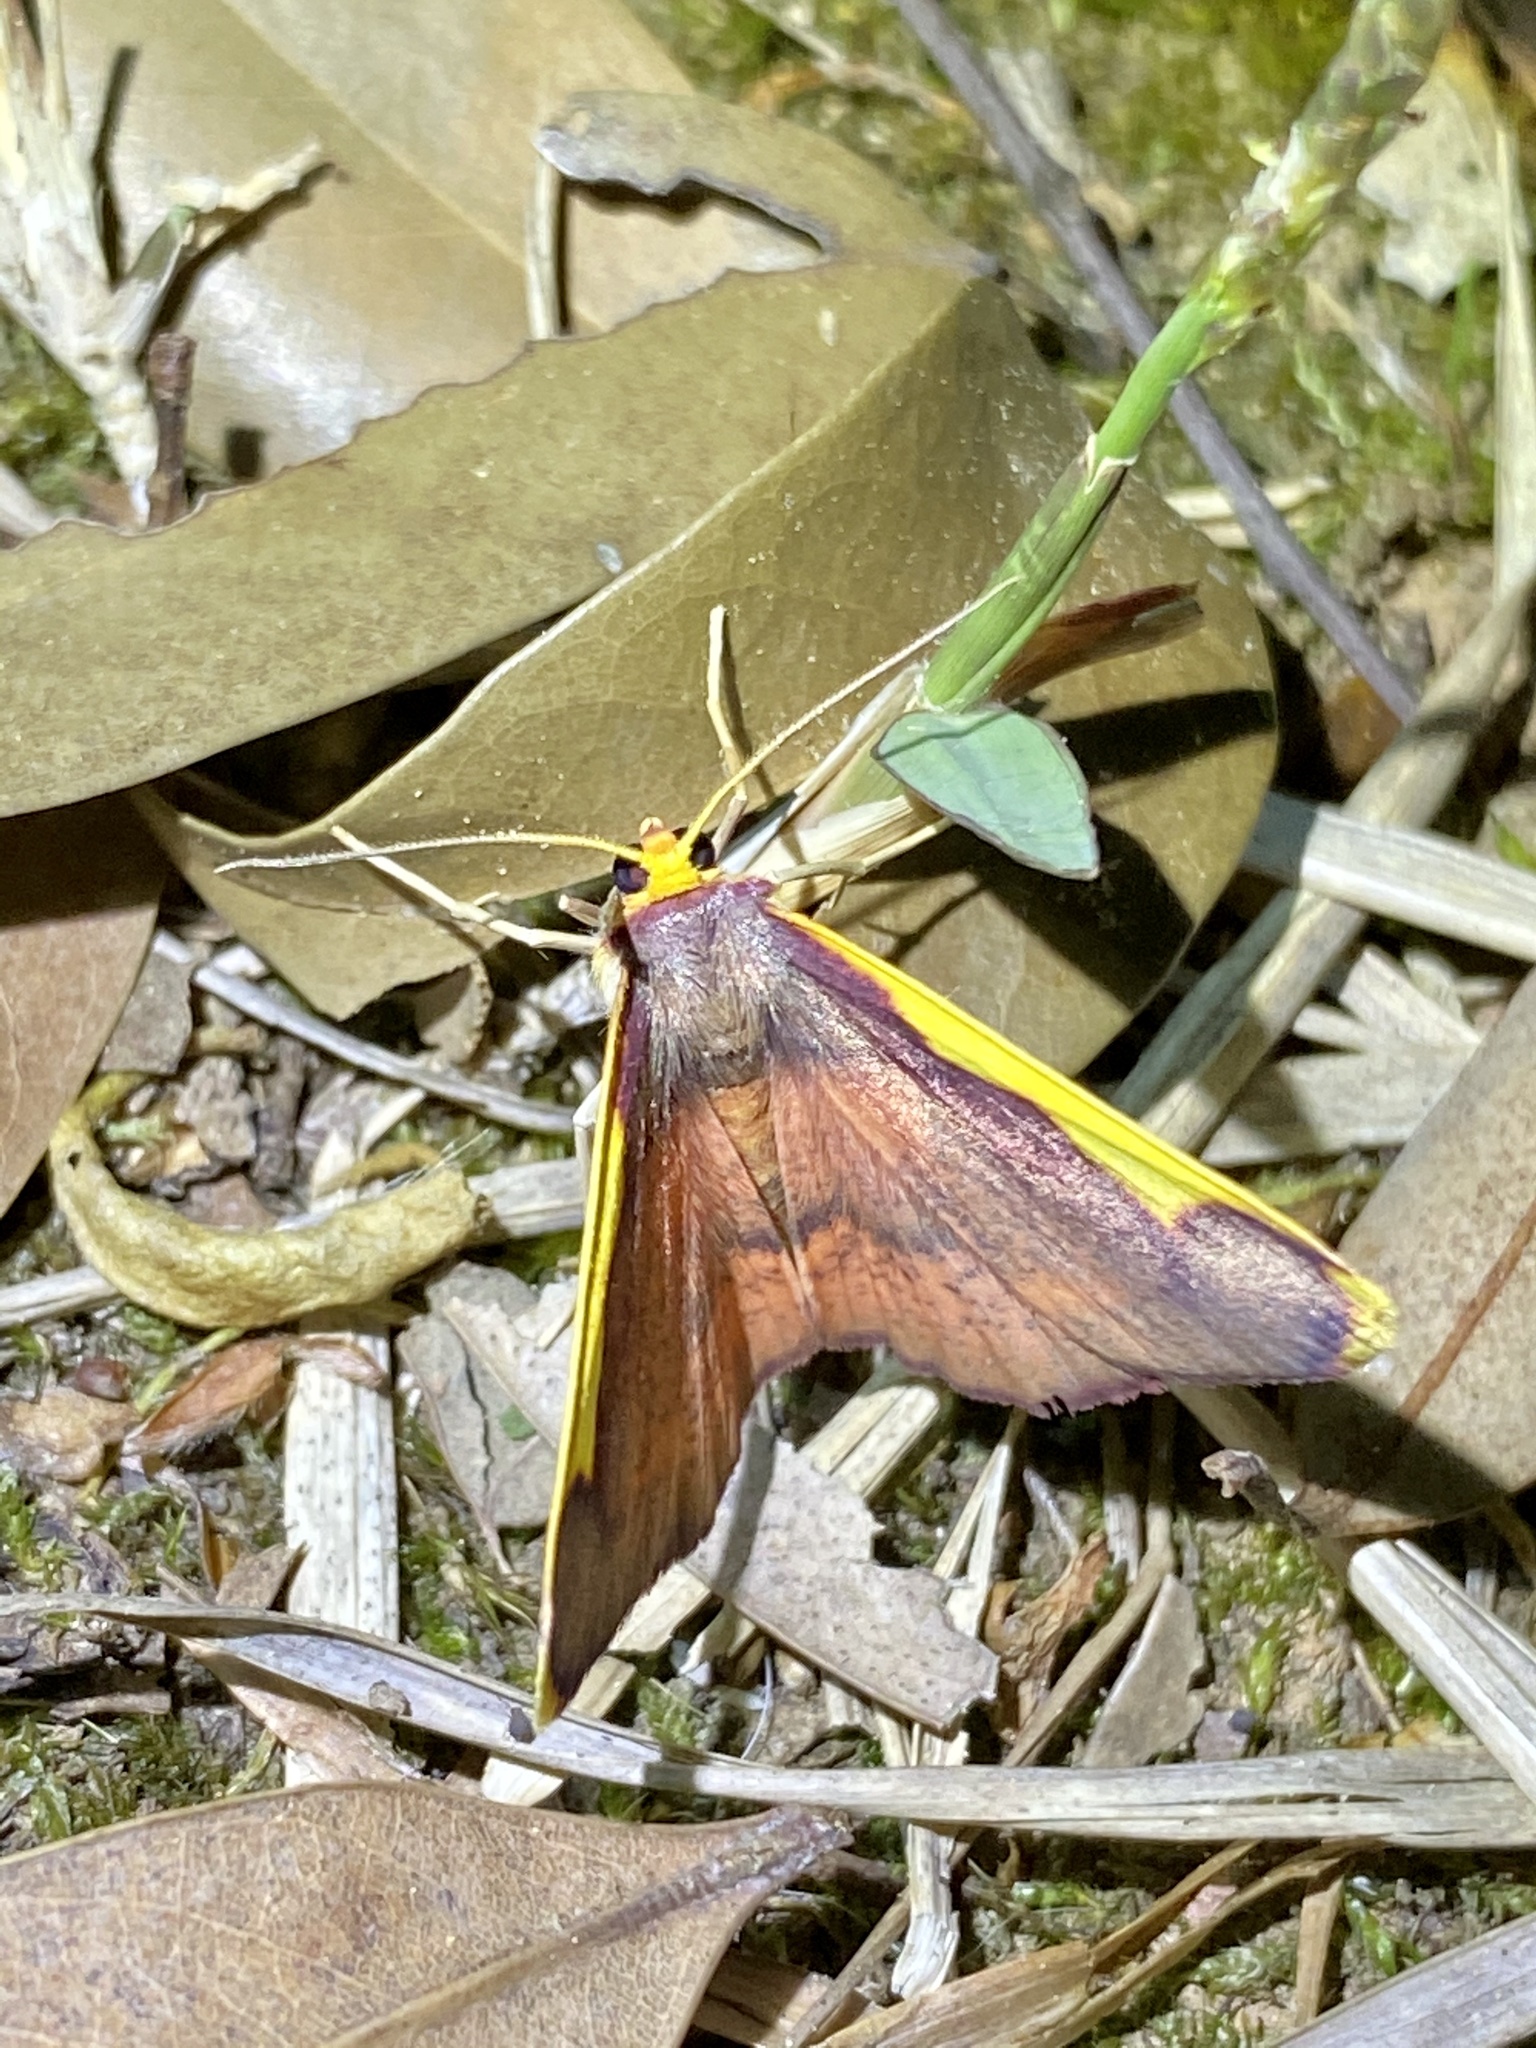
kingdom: Animalia
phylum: Arthropoda
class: Insecta
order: Lepidoptera
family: Geometridae
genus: Nothomiza
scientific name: Nothomiza formosa
